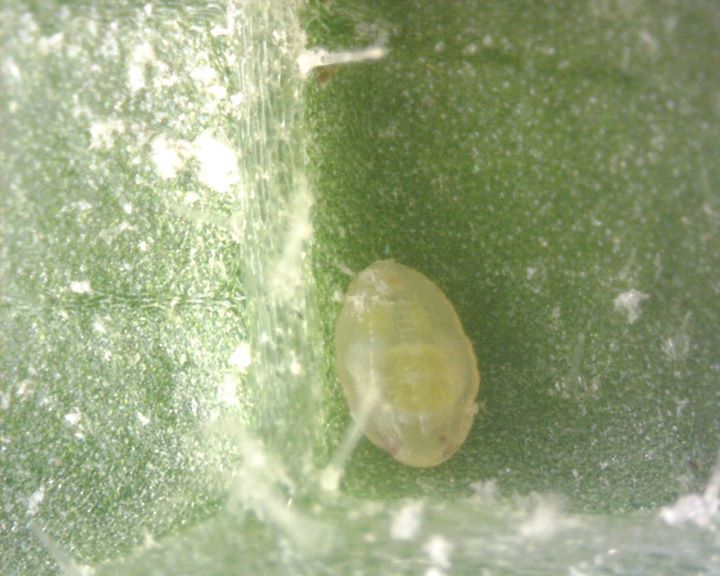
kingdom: Animalia
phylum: Arthropoda
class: Insecta
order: Hemiptera
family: Aleyrodidae
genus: Bemisia
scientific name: Bemisia tabaci
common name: Sweetpotato whitefly
